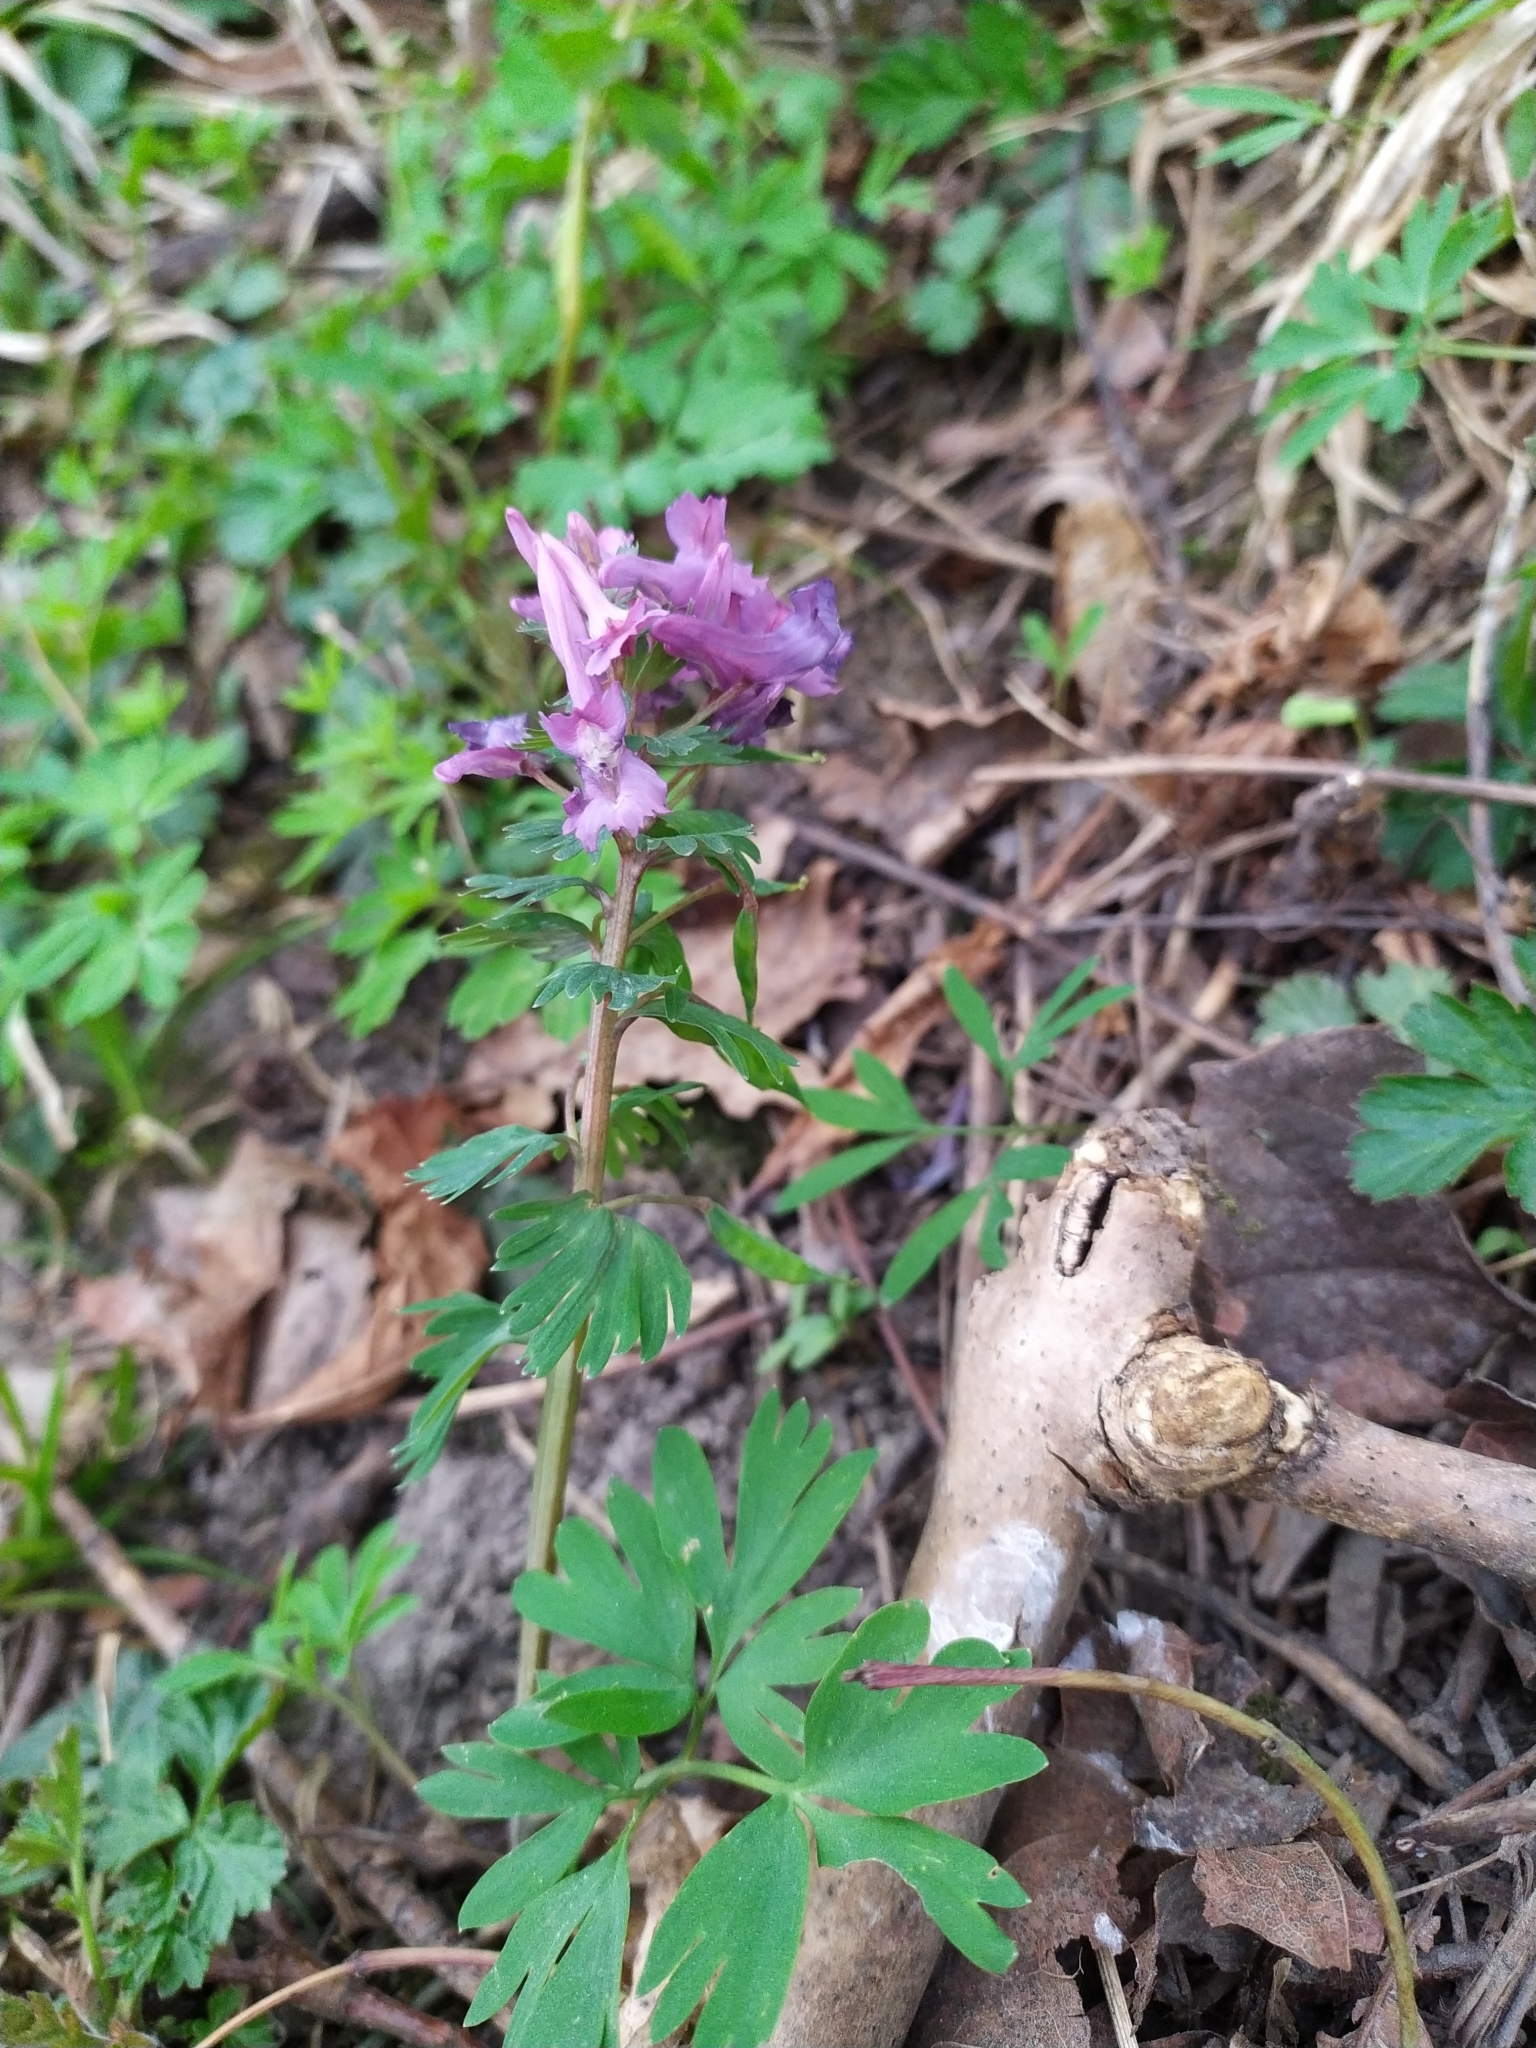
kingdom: Plantae
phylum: Tracheophyta
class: Magnoliopsida
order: Ranunculales
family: Papaveraceae
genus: Corydalis
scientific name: Corydalis solida
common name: Bird-in-a-bush
